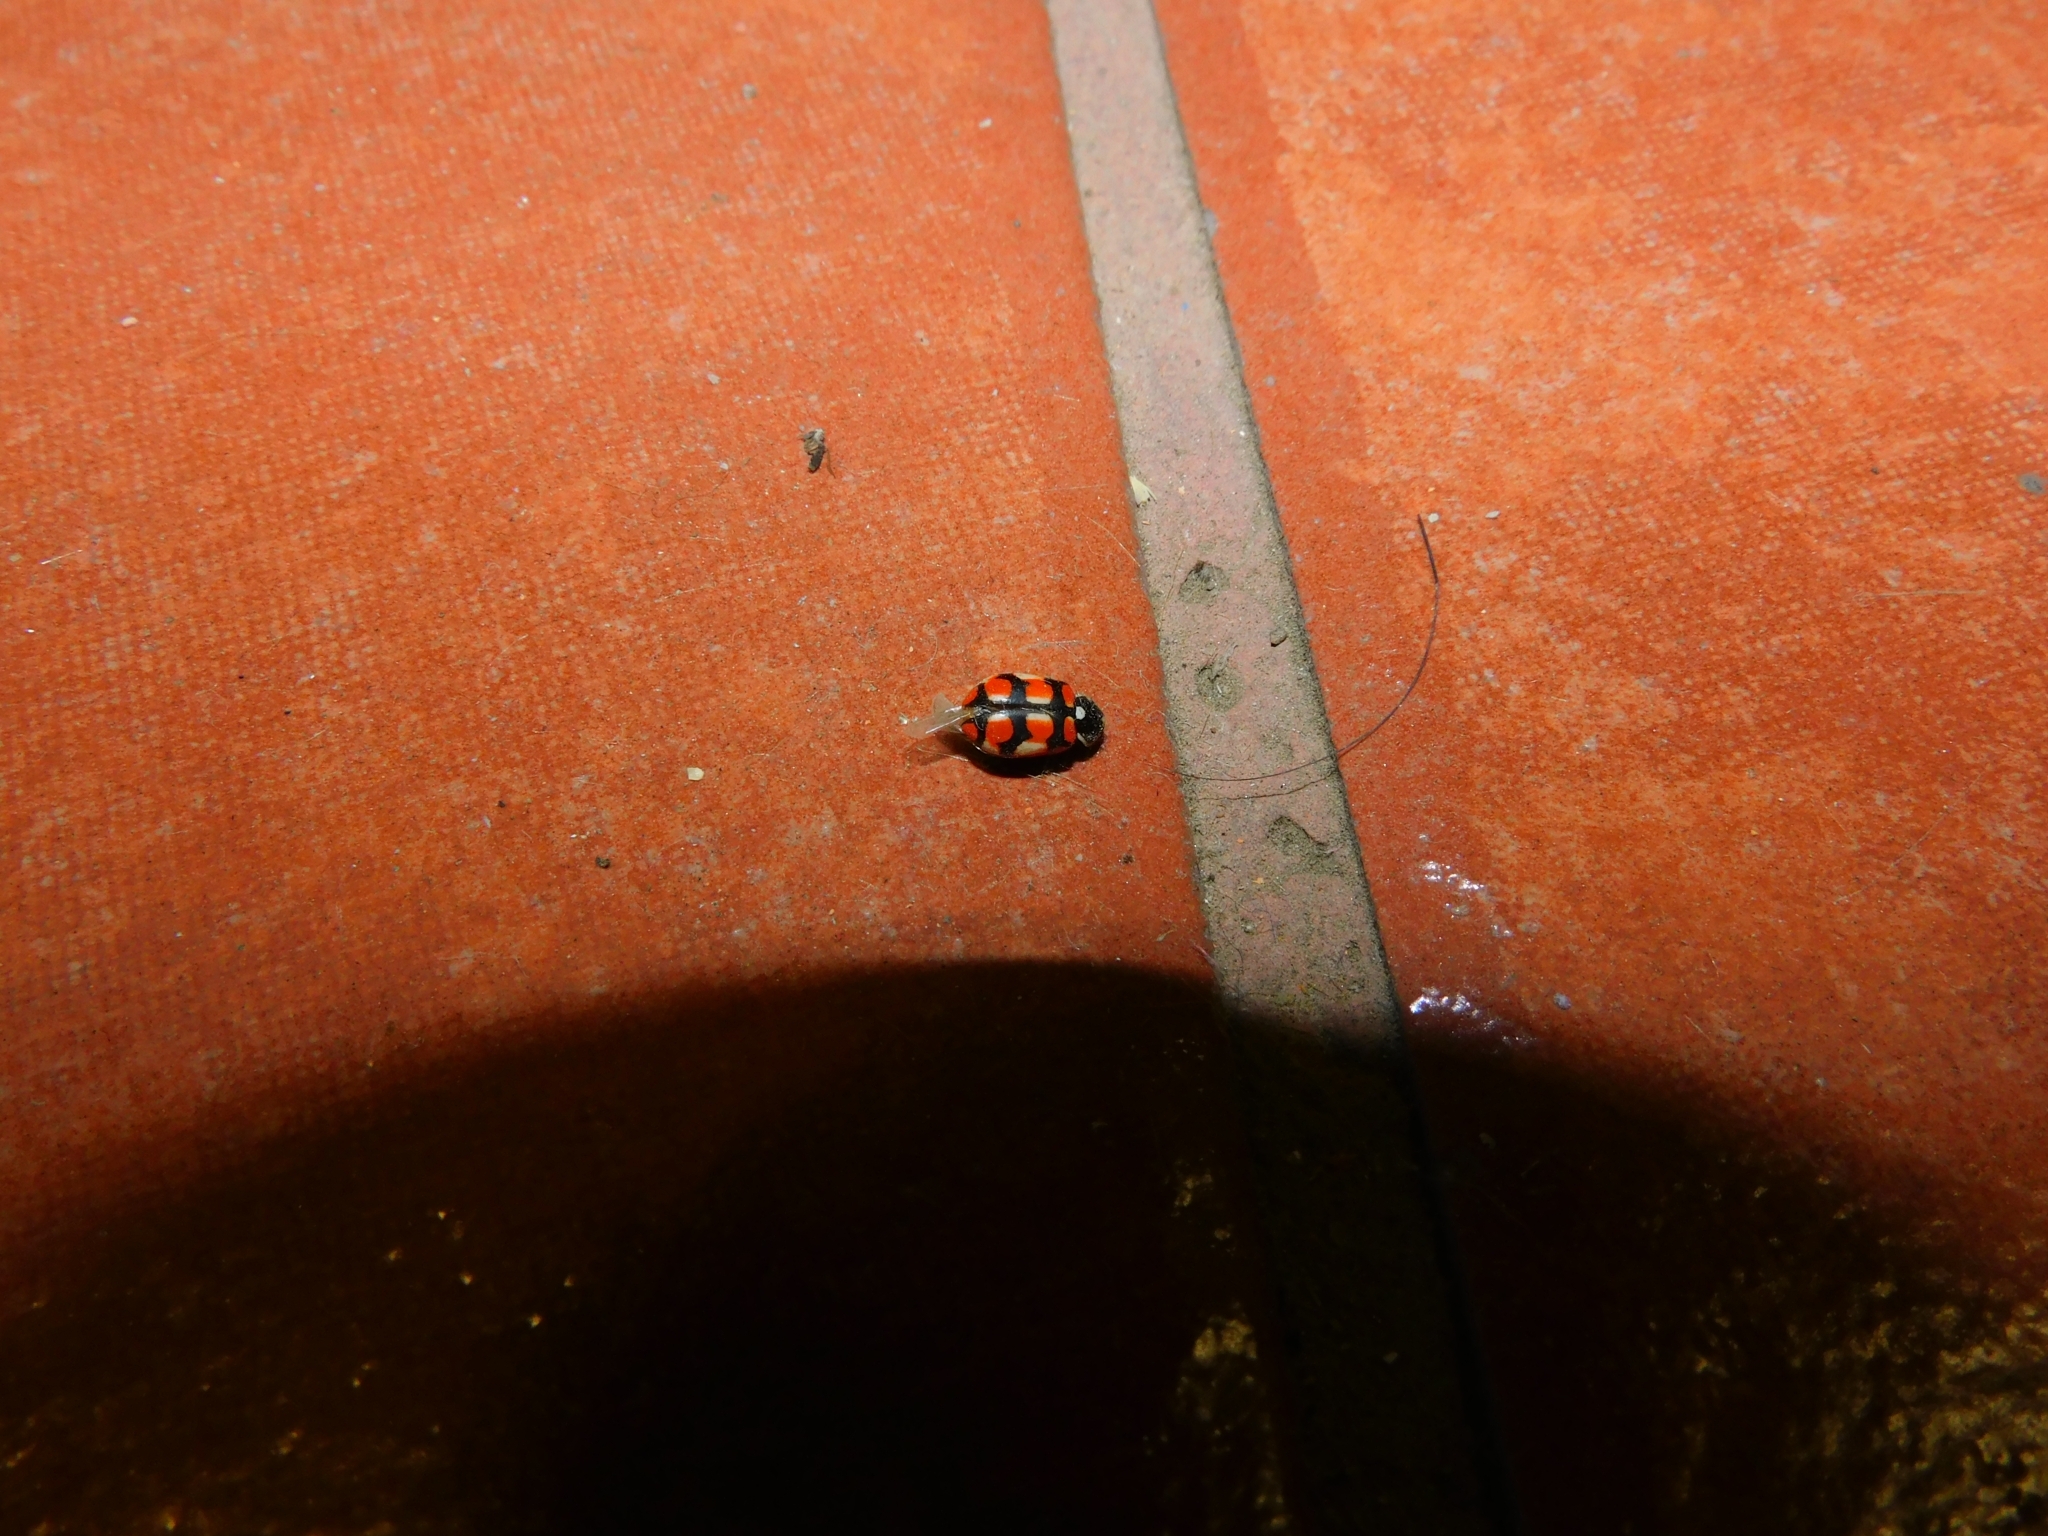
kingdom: Animalia
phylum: Arthropoda
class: Insecta
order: Coleoptera
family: Coccinellidae
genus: Eriopis
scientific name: Eriopis chilensis
